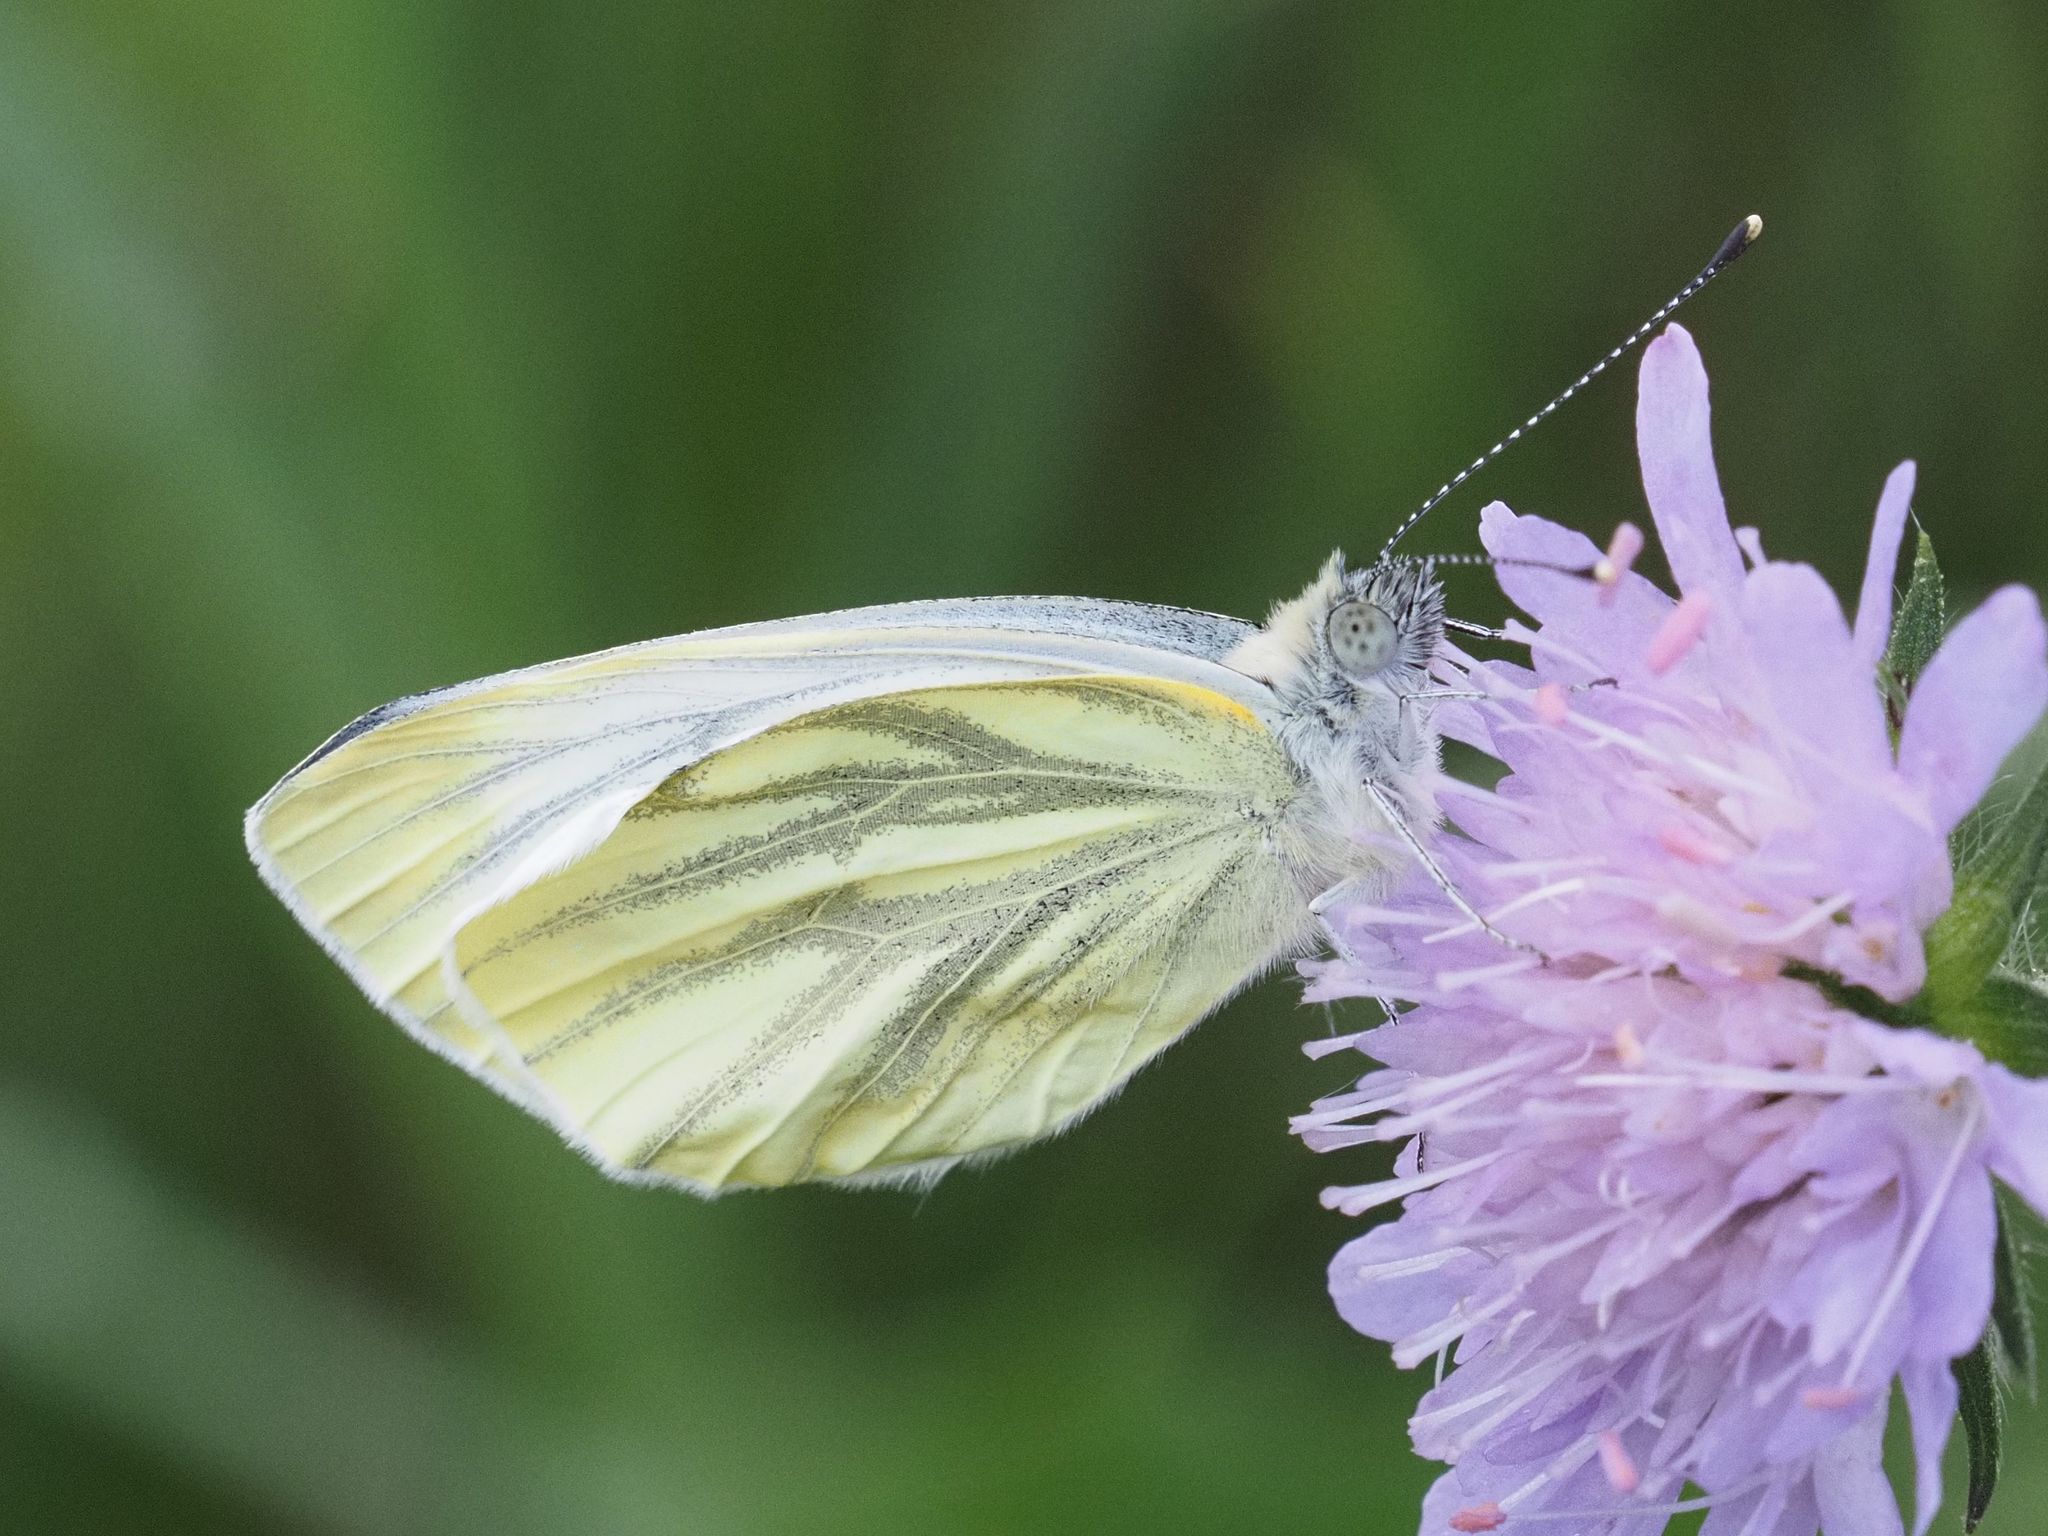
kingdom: Animalia
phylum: Arthropoda
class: Insecta
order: Lepidoptera
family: Pieridae
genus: Pieris
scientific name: Pieris napi
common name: Green-veined white
